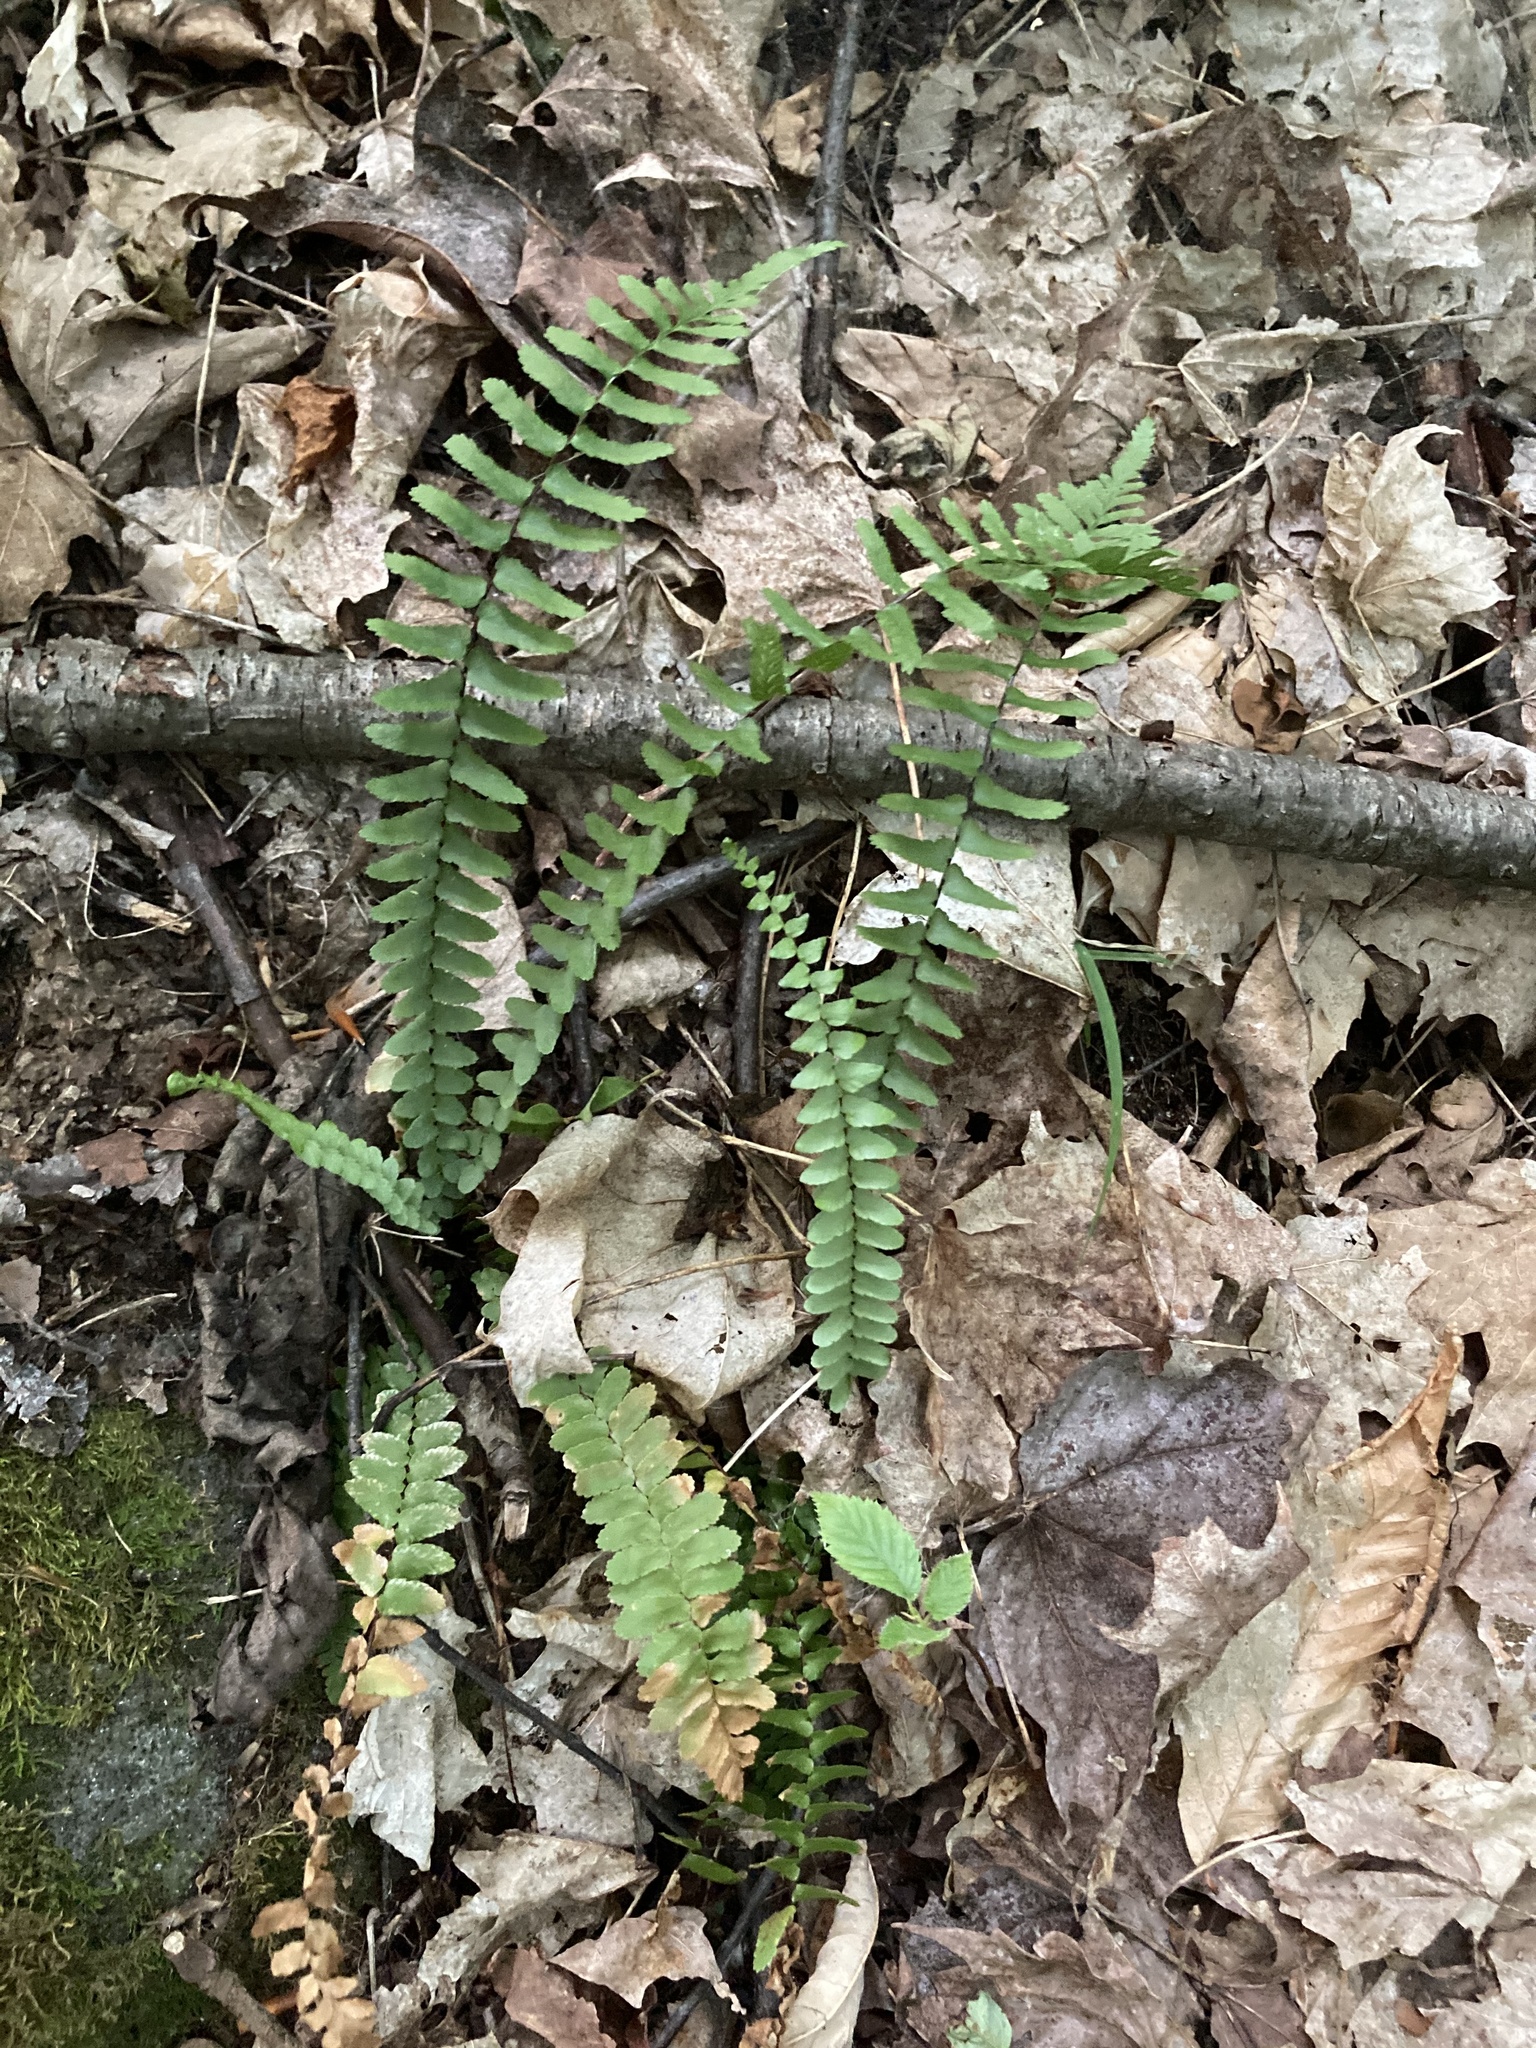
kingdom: Plantae
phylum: Tracheophyta
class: Polypodiopsida
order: Polypodiales
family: Aspleniaceae
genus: Asplenium
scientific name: Asplenium platyneuron
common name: Ebony spleenwort
